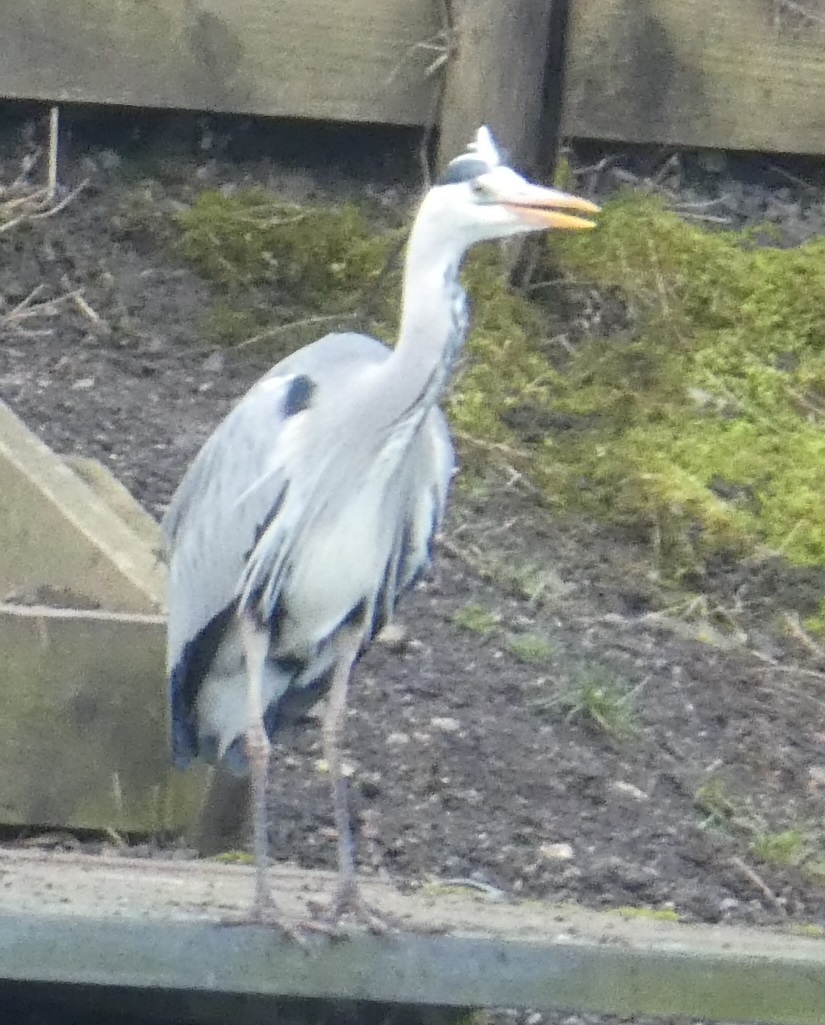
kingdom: Animalia
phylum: Chordata
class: Aves
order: Pelecaniformes
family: Ardeidae
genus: Ardea
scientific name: Ardea cinerea
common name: Grey heron
